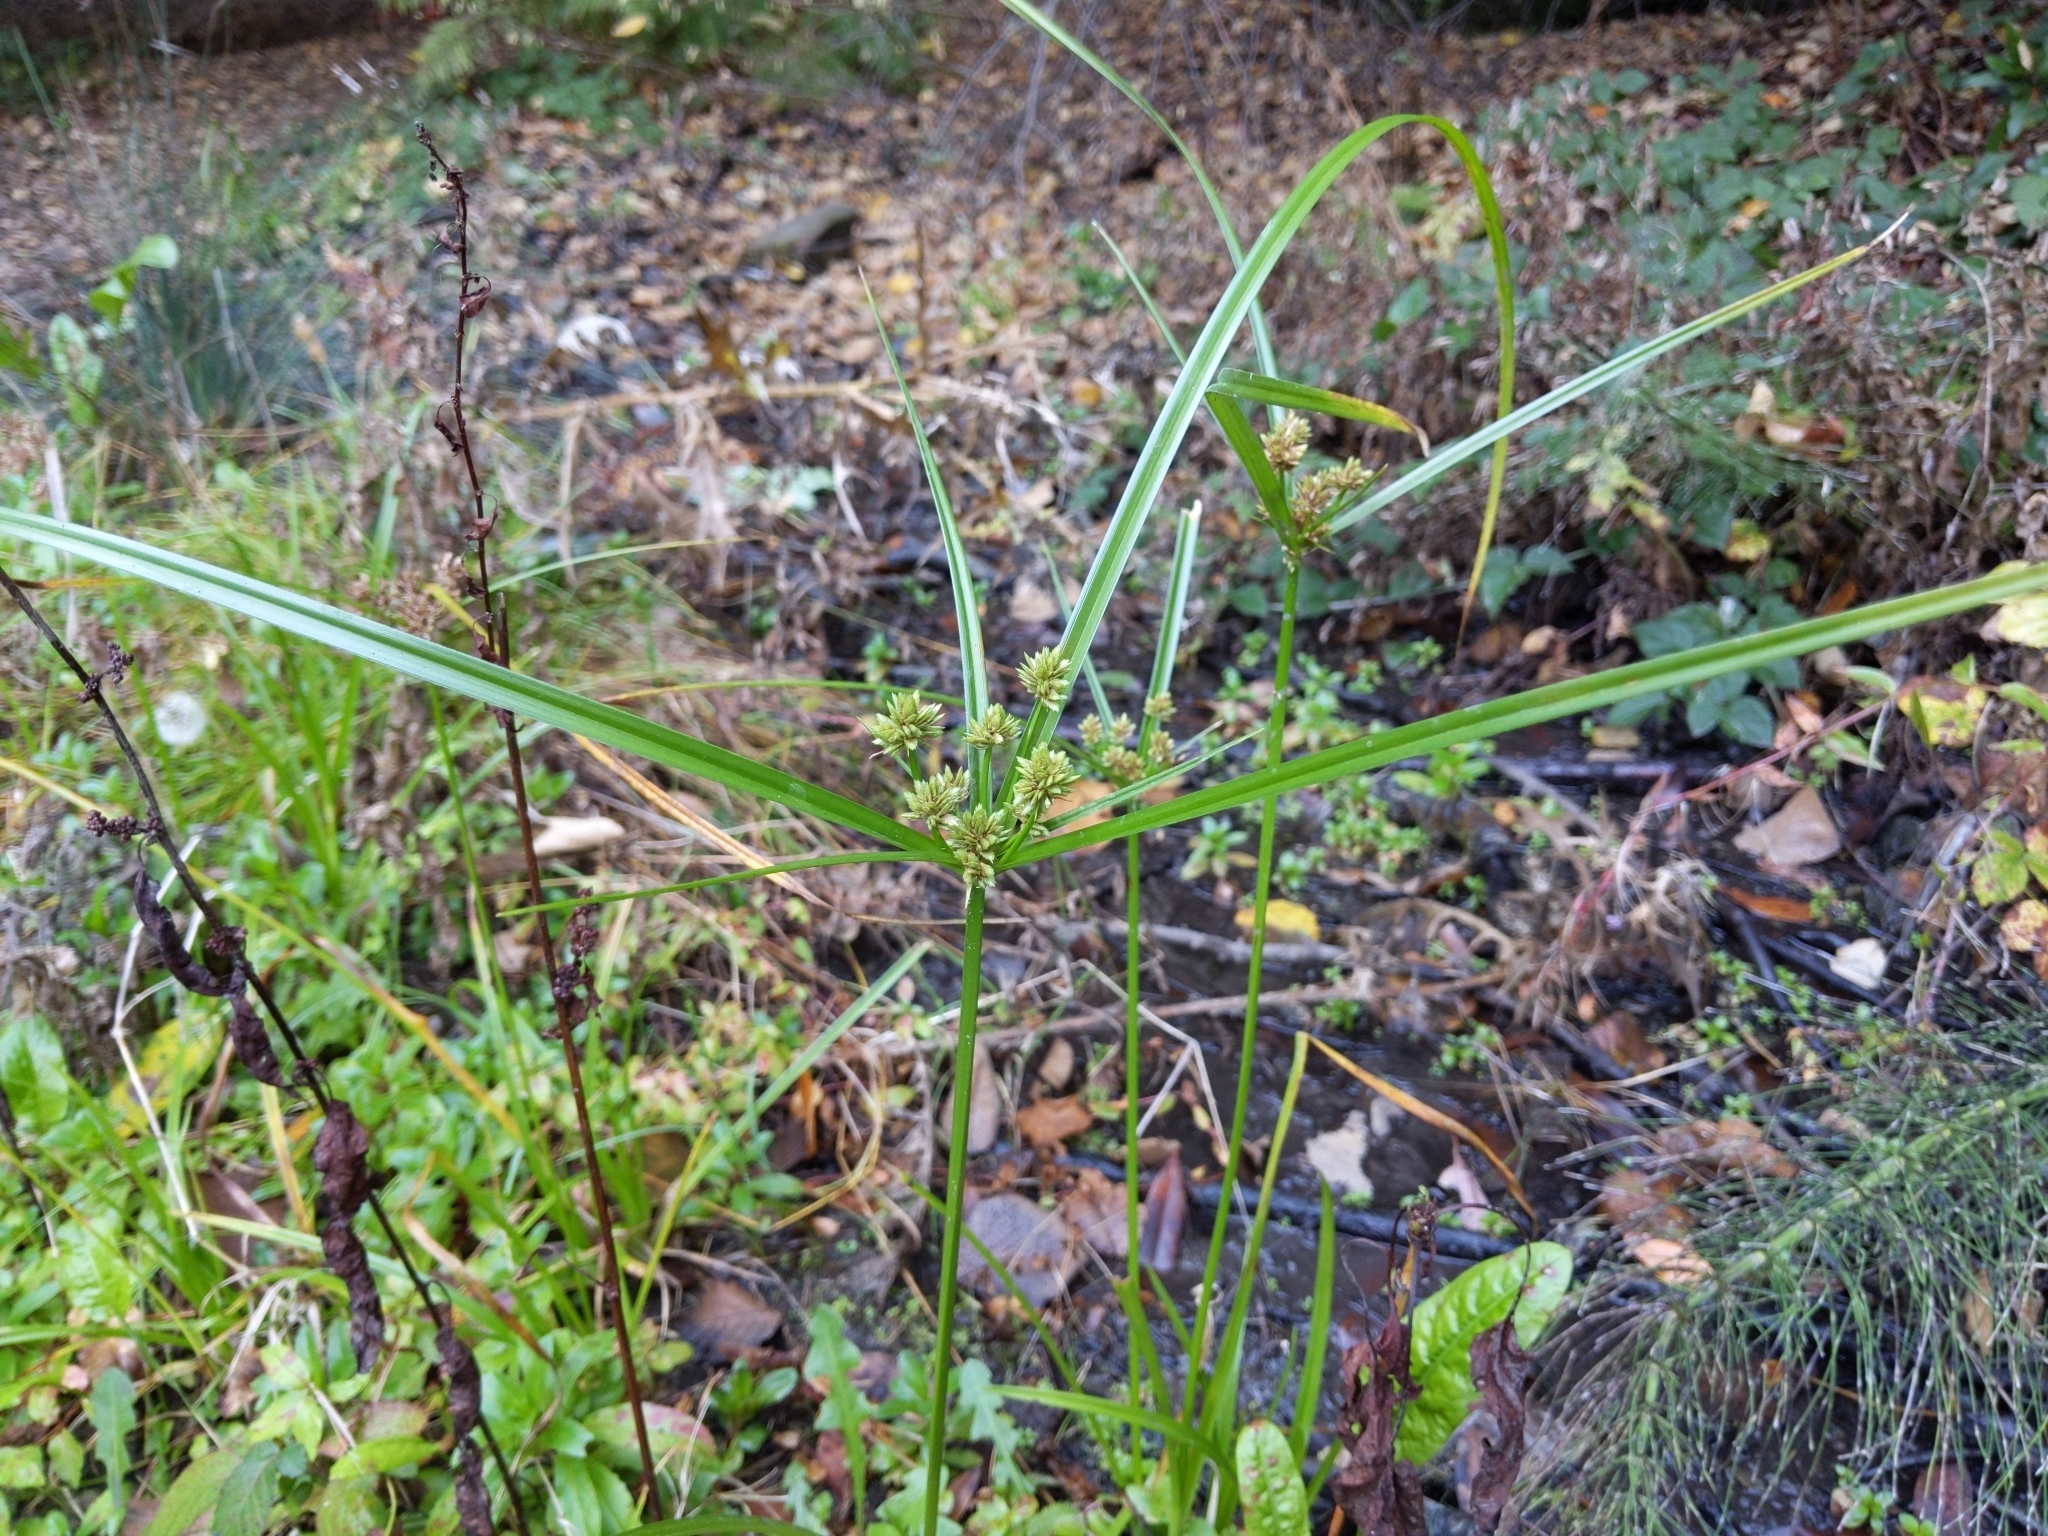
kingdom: Plantae
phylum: Tracheophyta
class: Liliopsida
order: Poales
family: Cyperaceae
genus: Cyperus
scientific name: Cyperus eragrostis
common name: Tall flatsedge
